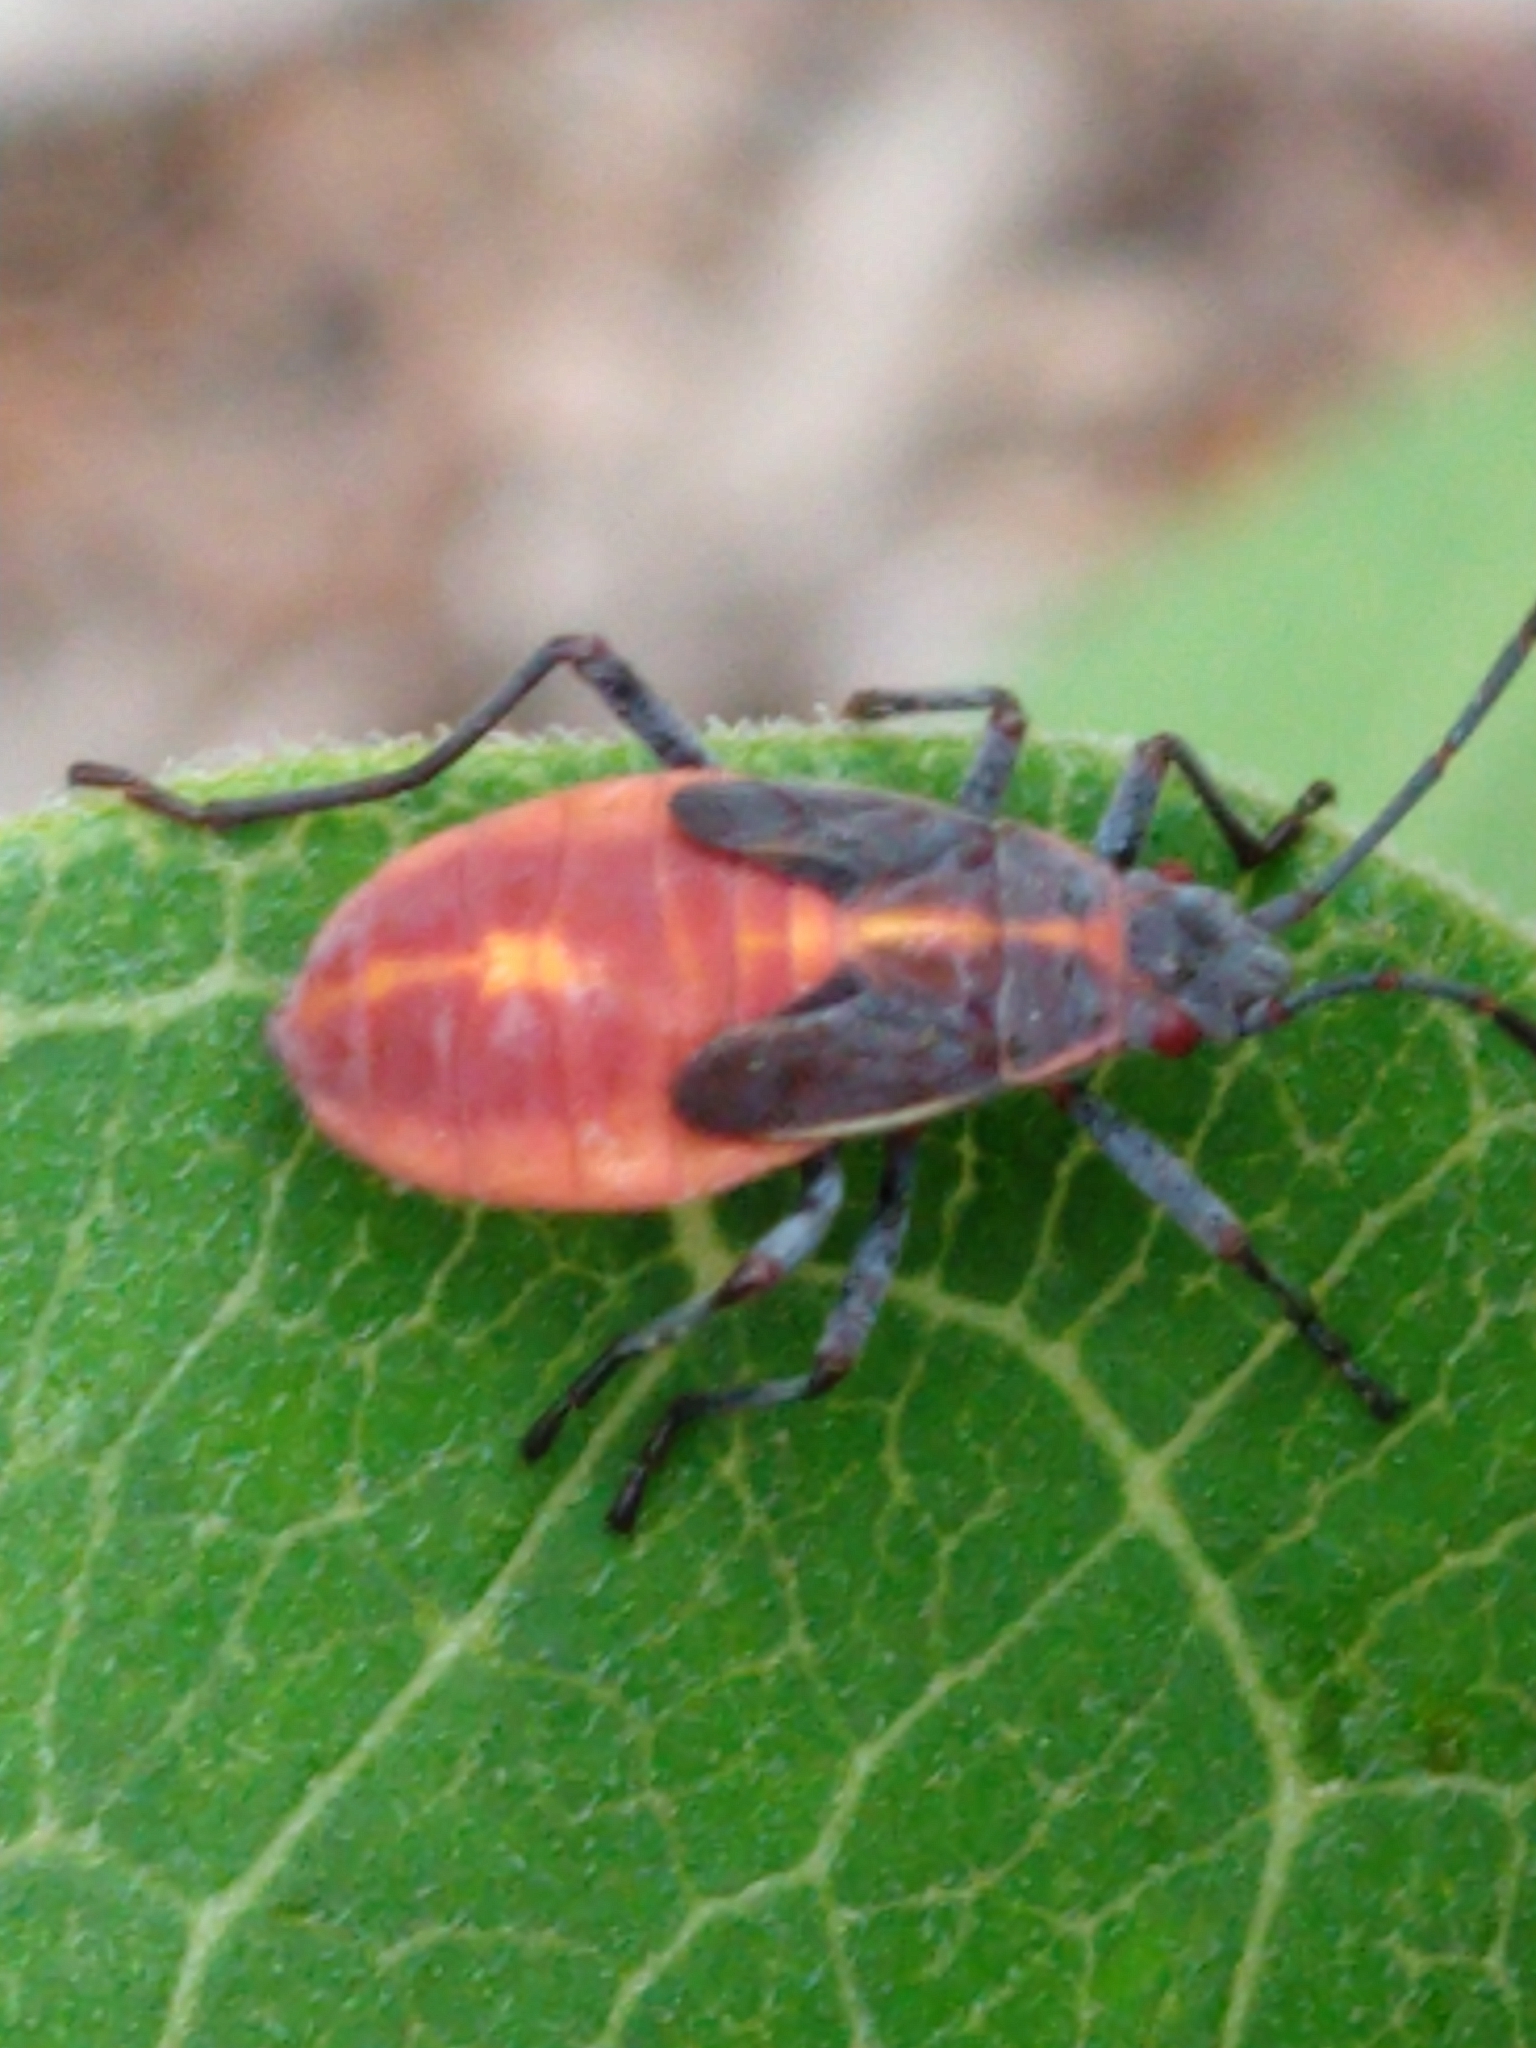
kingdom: Animalia
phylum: Arthropoda
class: Insecta
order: Hemiptera
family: Rhopalidae
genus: Boisea
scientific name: Boisea trivittata
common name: Boxelder bug
